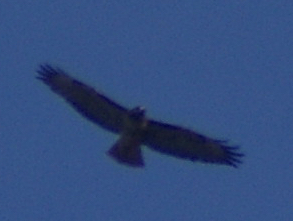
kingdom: Animalia
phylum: Chordata
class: Aves
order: Accipitriformes
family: Accipitridae
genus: Buteo
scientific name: Buteo jamaicensis
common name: Red-tailed hawk
